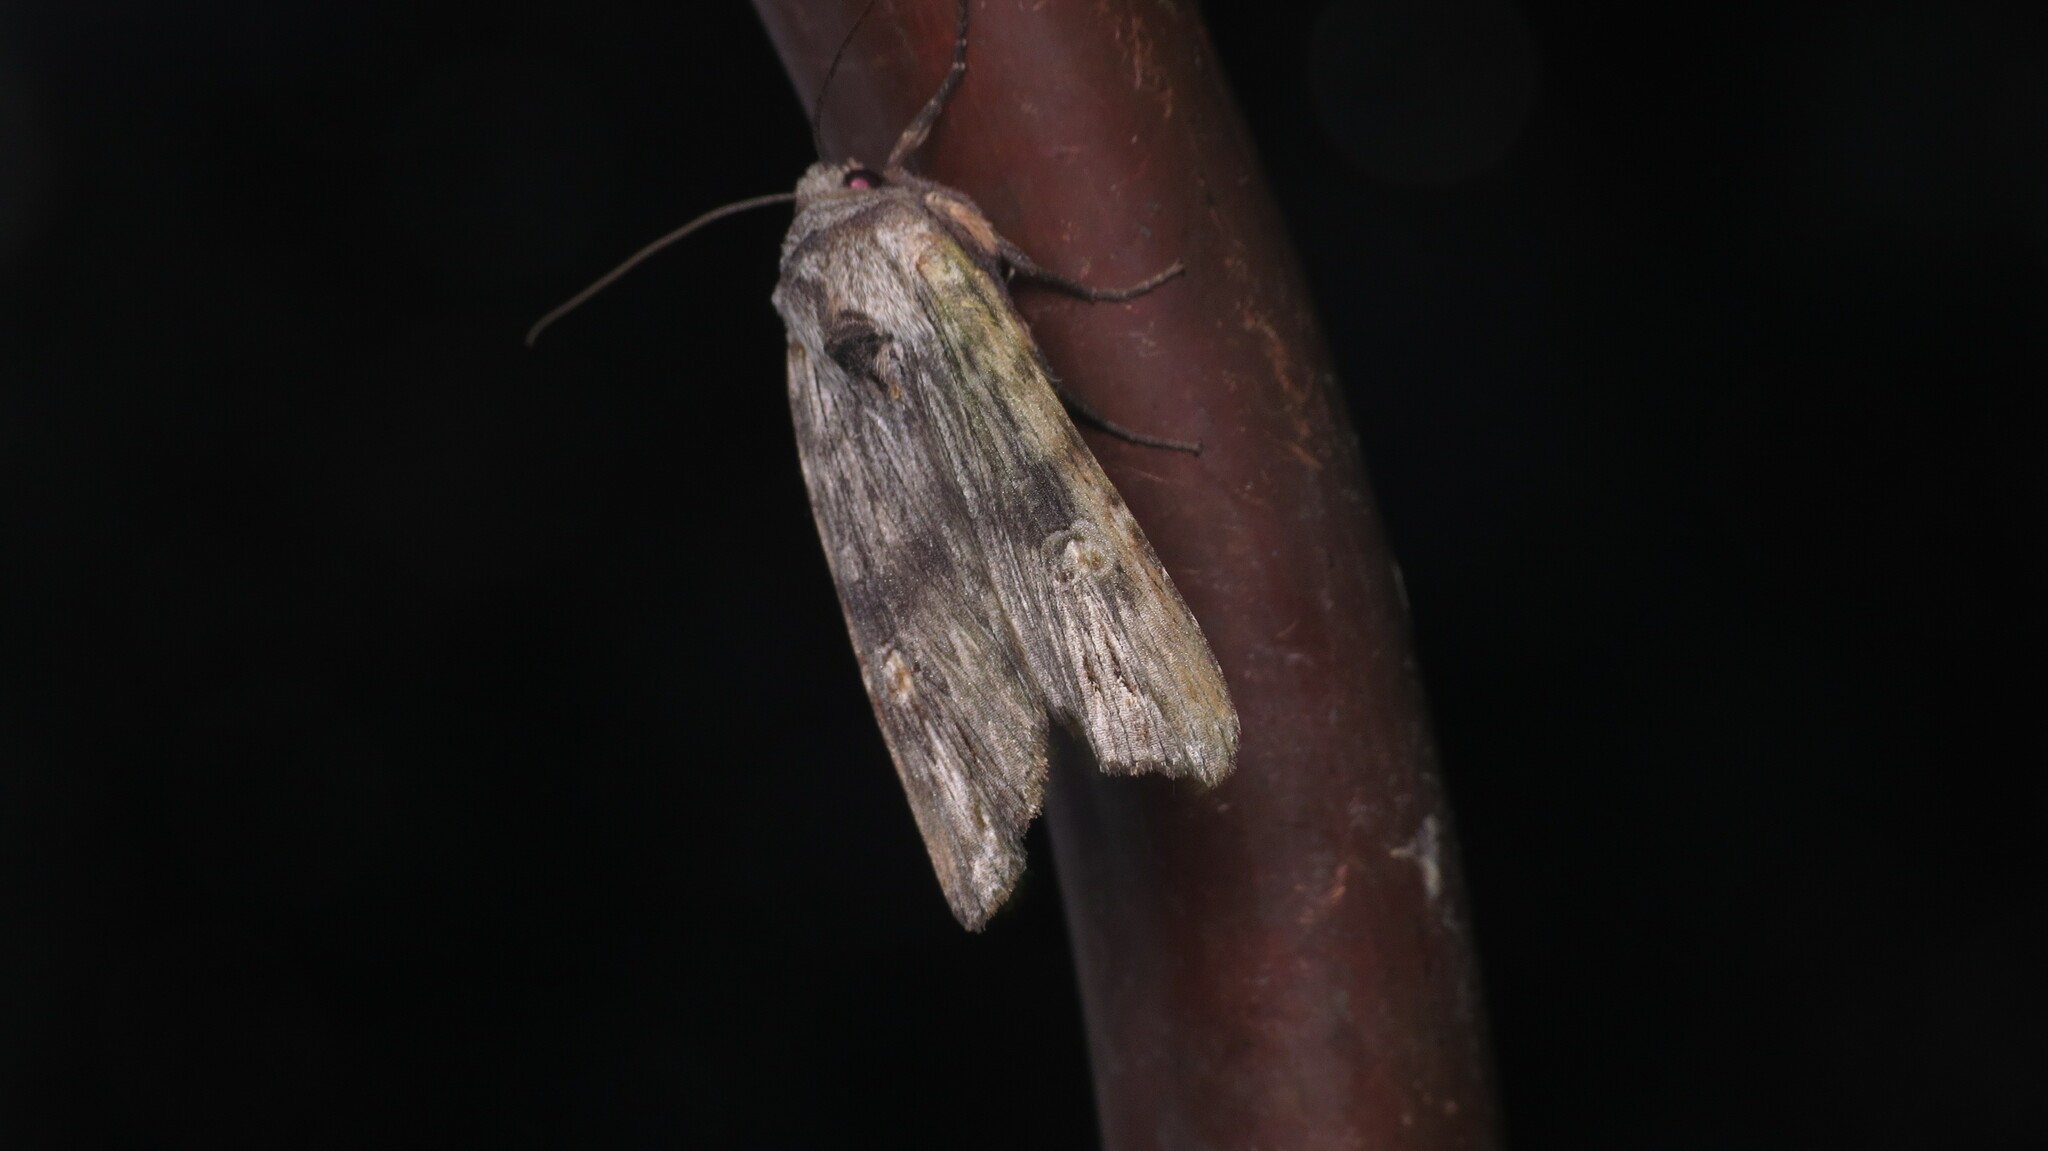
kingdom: Animalia
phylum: Arthropoda
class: Insecta
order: Lepidoptera
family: Noctuidae
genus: Xylena
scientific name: Xylena germana
